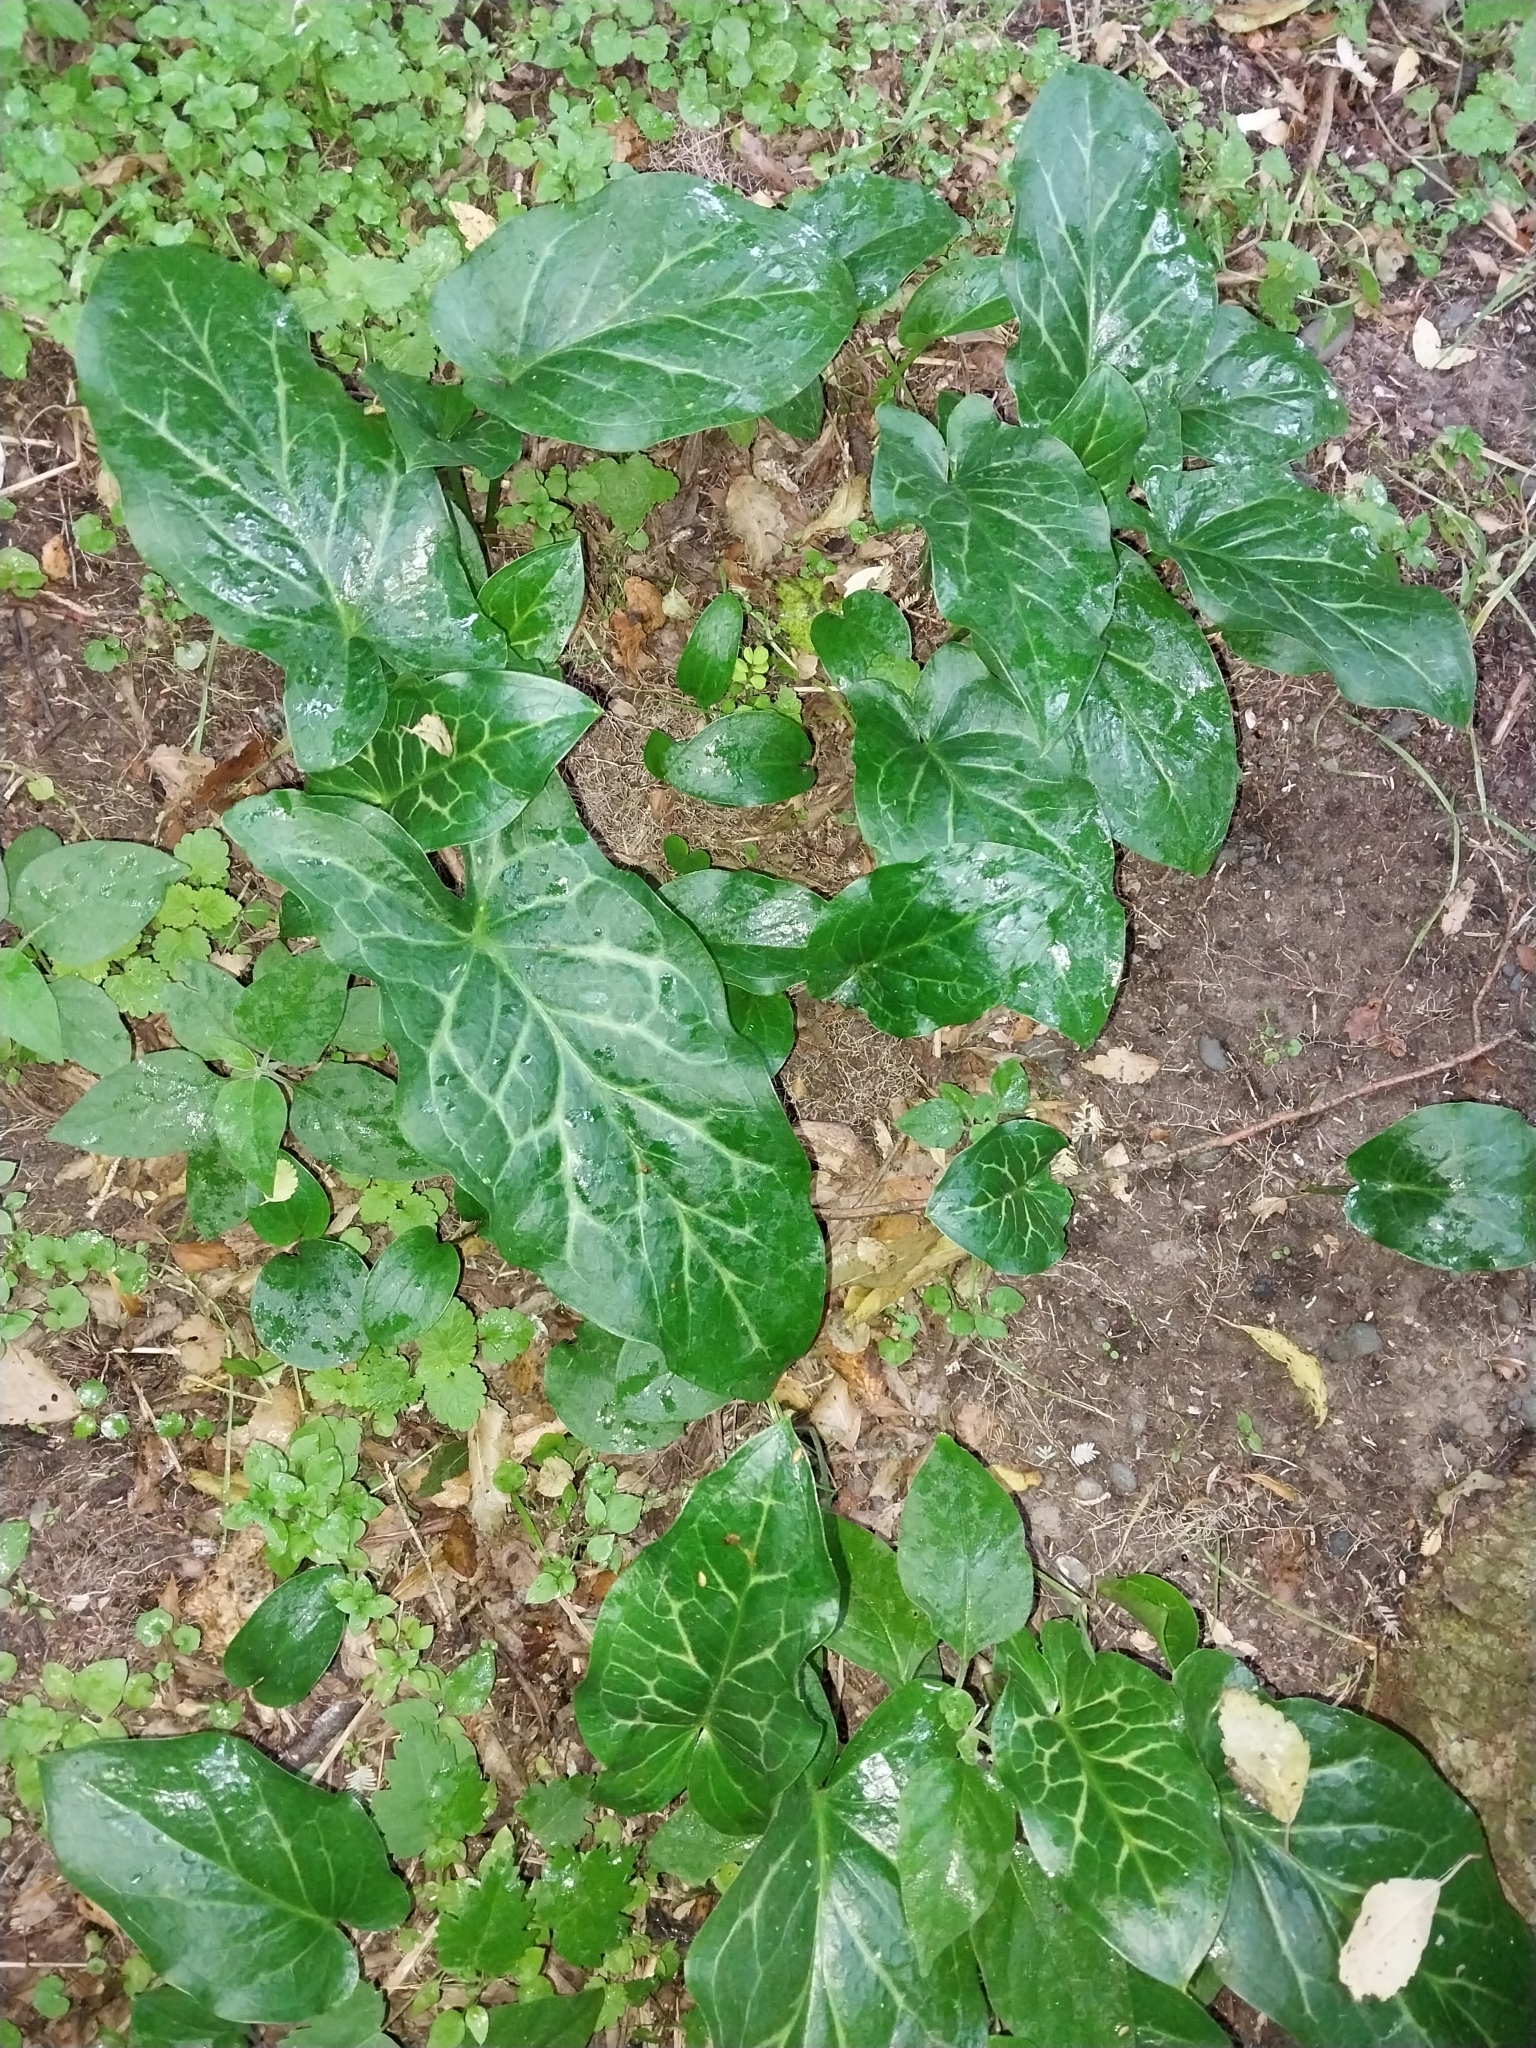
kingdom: Plantae
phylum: Tracheophyta
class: Liliopsida
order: Alismatales
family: Araceae
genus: Arum
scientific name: Arum italicum
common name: Italian lords-and-ladies
